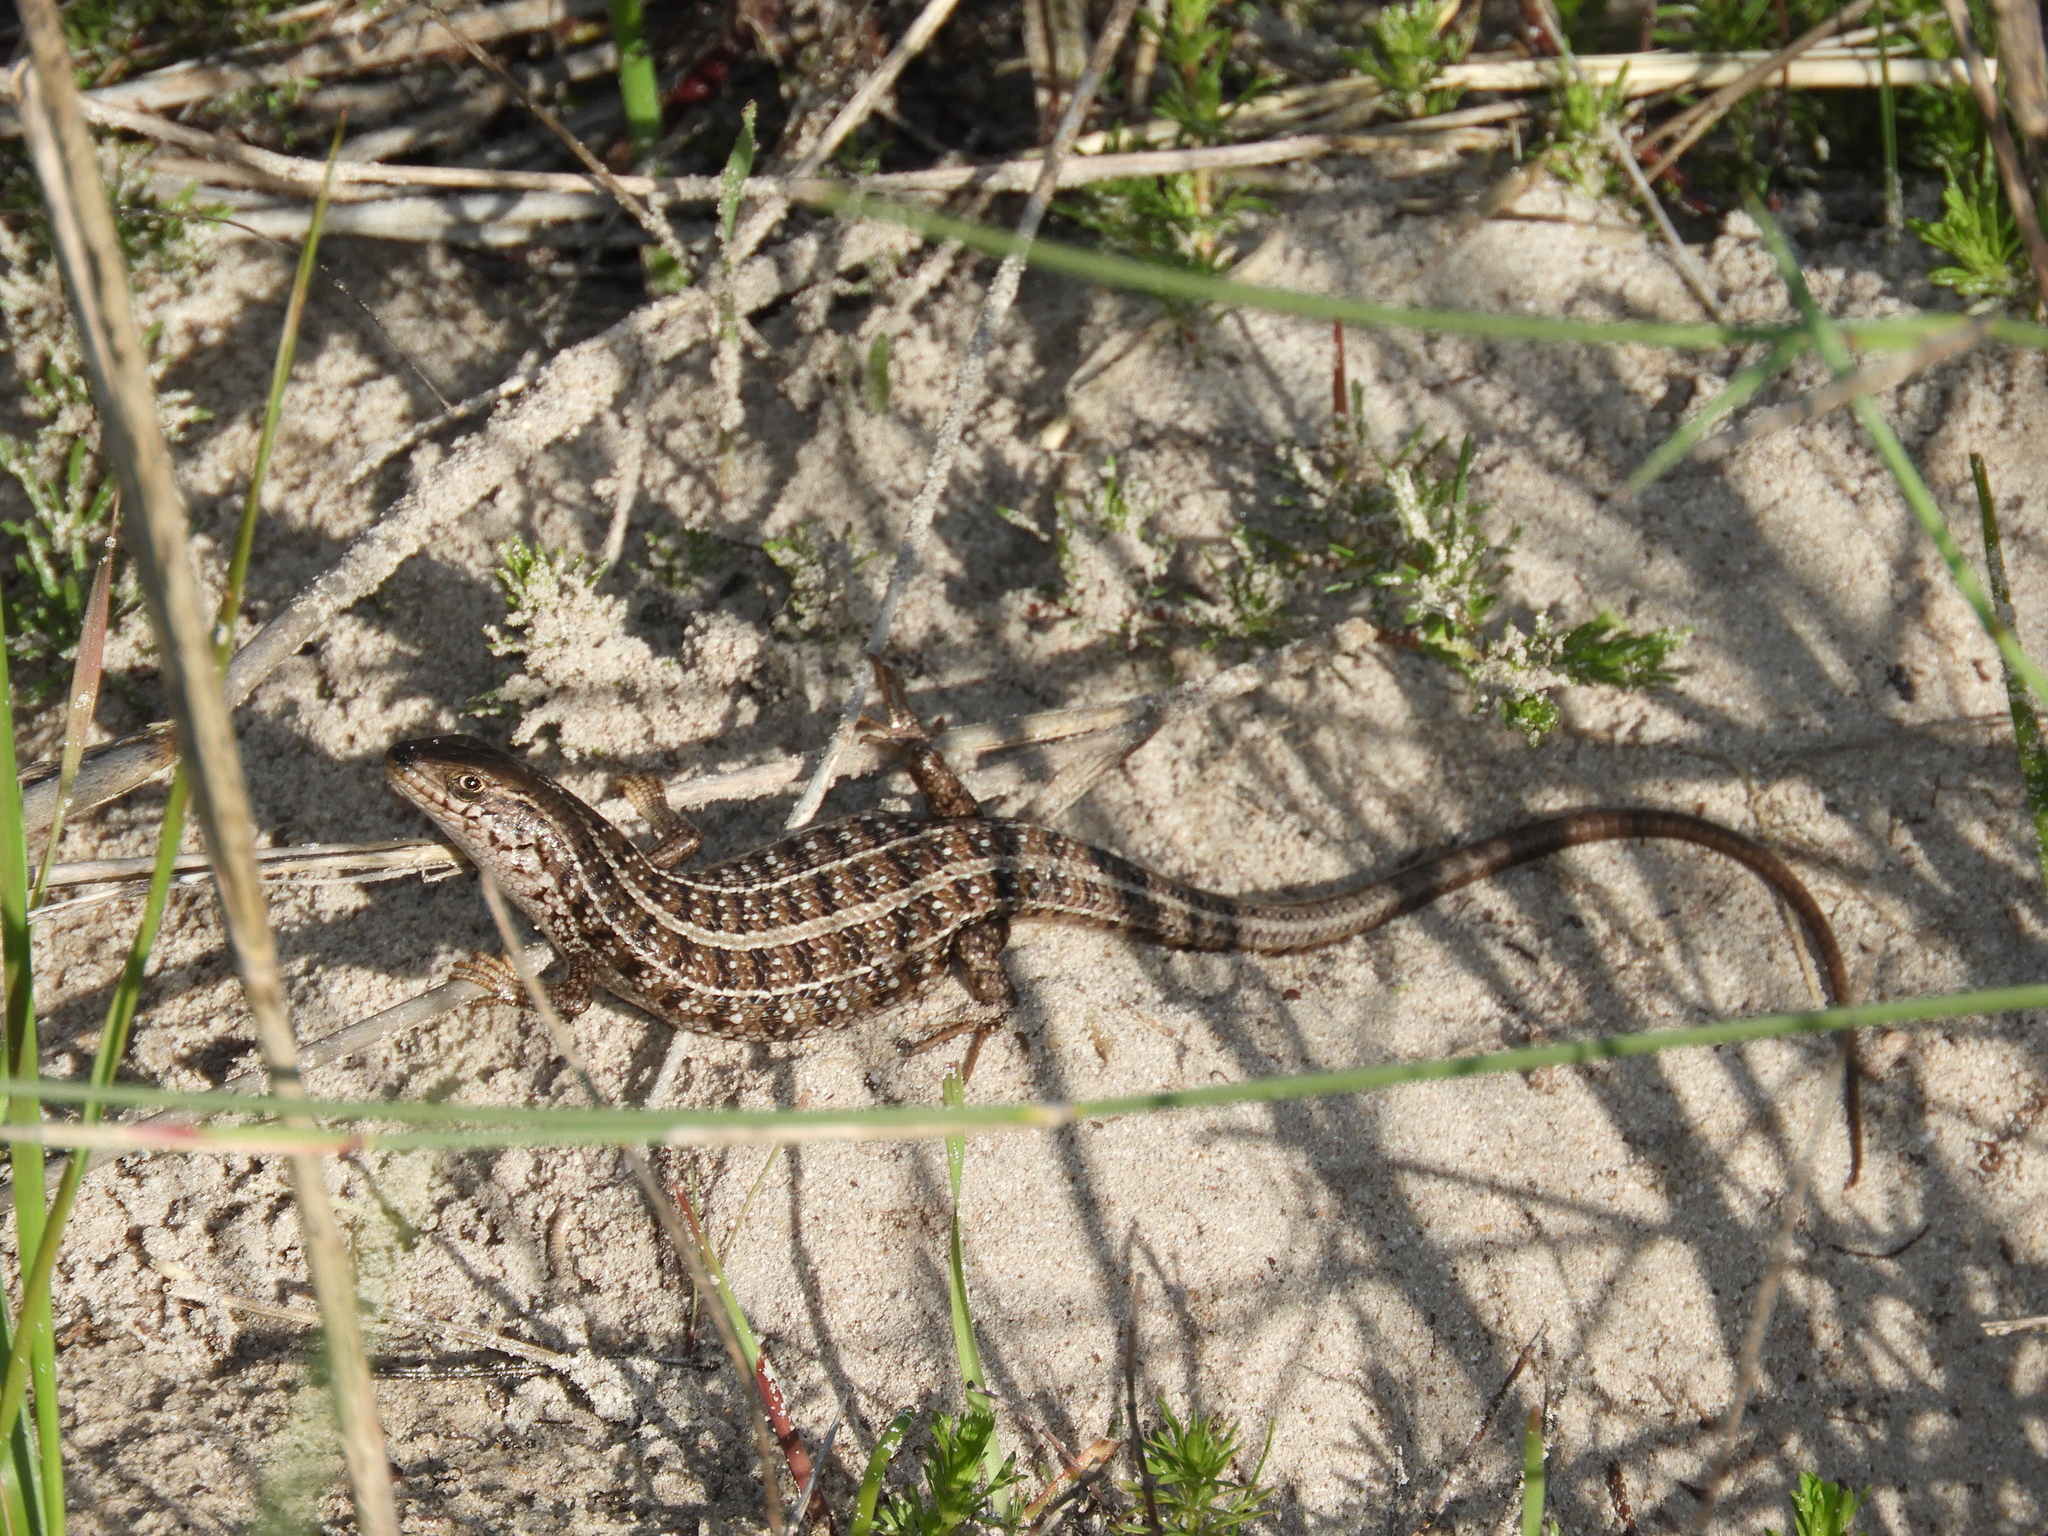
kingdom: Animalia
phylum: Chordata
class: Squamata
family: Scincidae
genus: Trachylepis
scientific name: Trachylepis capensis
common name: Cape skink
